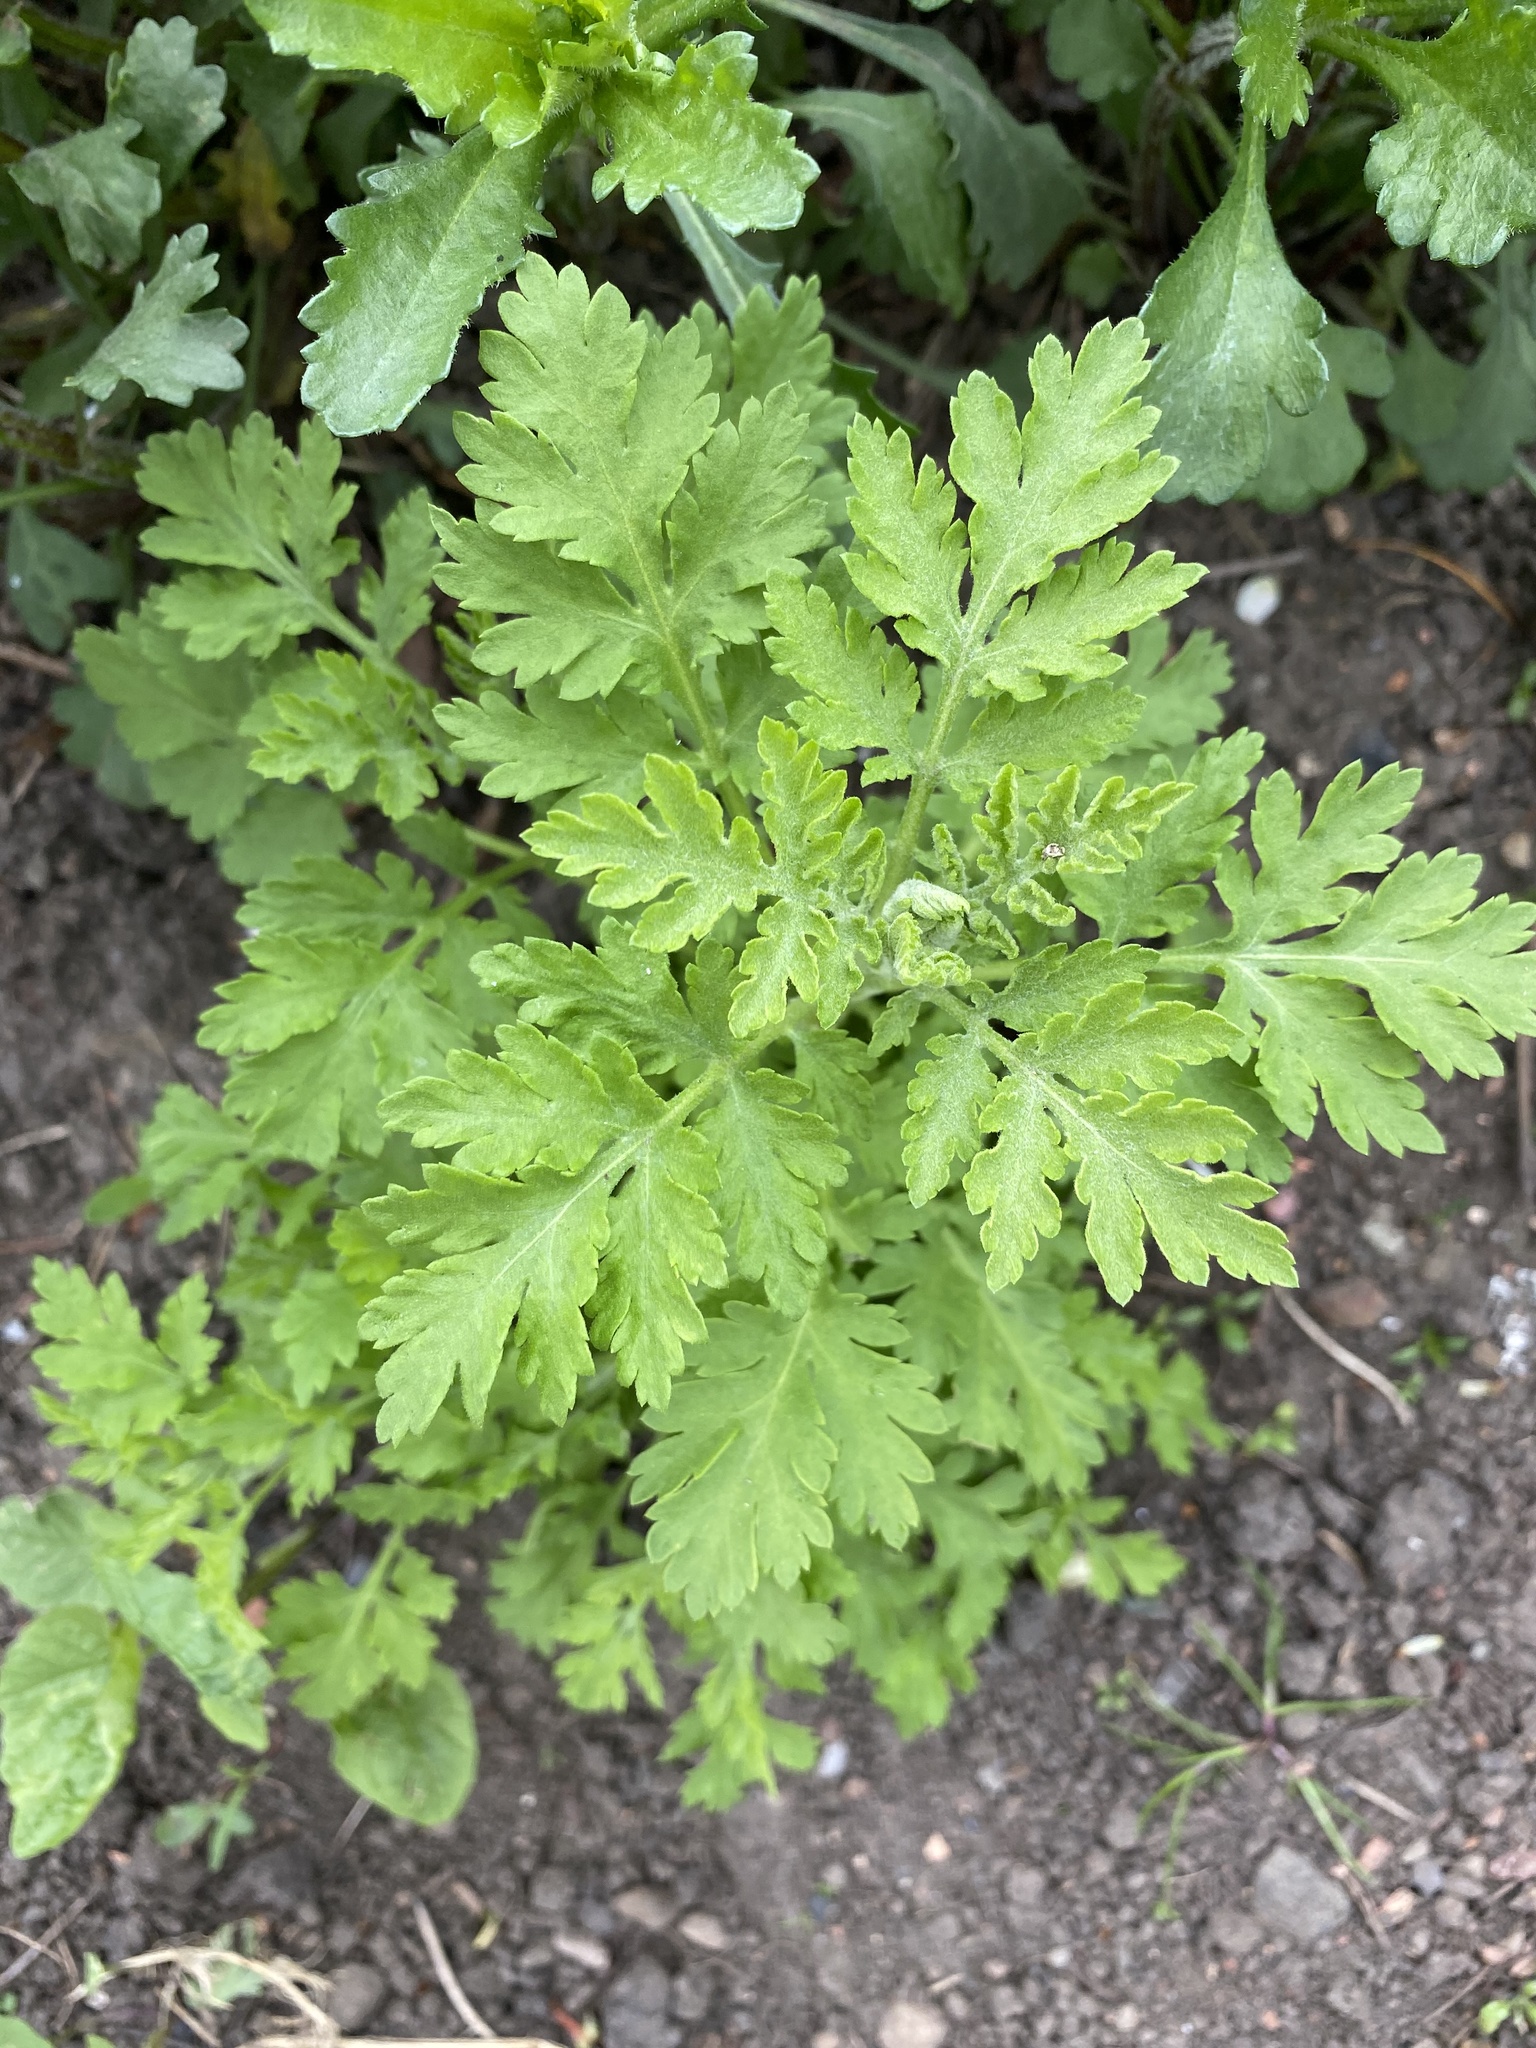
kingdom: Plantae
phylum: Tracheophyta
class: Magnoliopsida
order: Asterales
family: Asteraceae
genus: Tanacetum
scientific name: Tanacetum parthenium
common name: Feverfew
